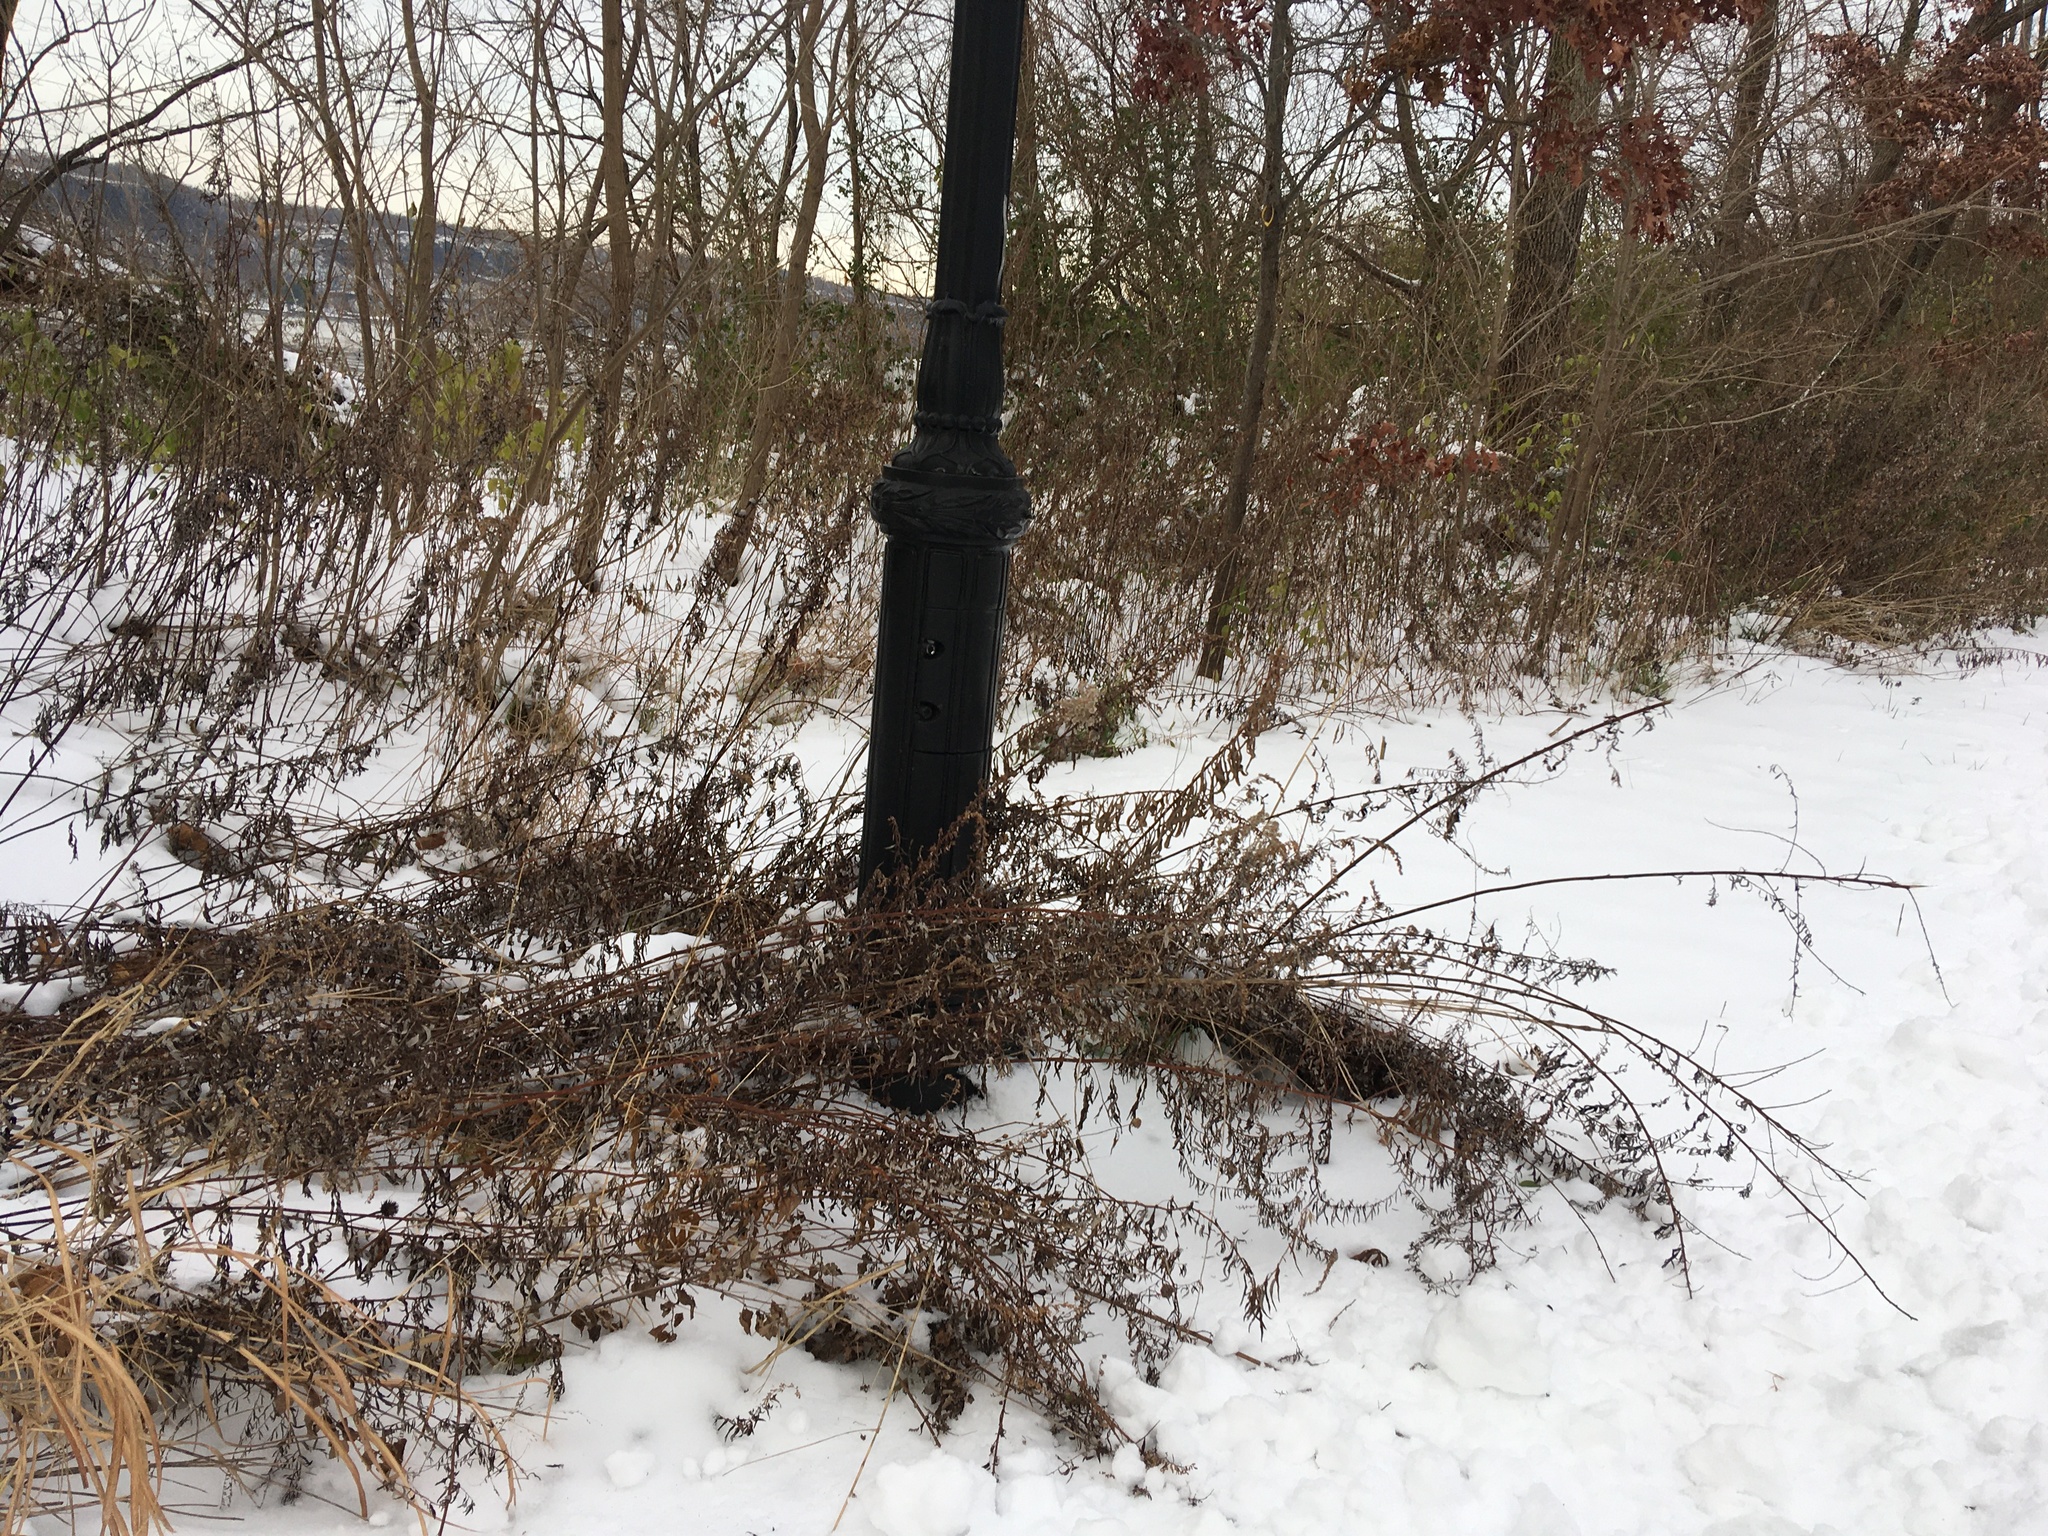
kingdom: Plantae
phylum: Tracheophyta
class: Magnoliopsida
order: Asterales
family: Asteraceae
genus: Artemisia
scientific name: Artemisia vulgaris
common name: Mugwort
